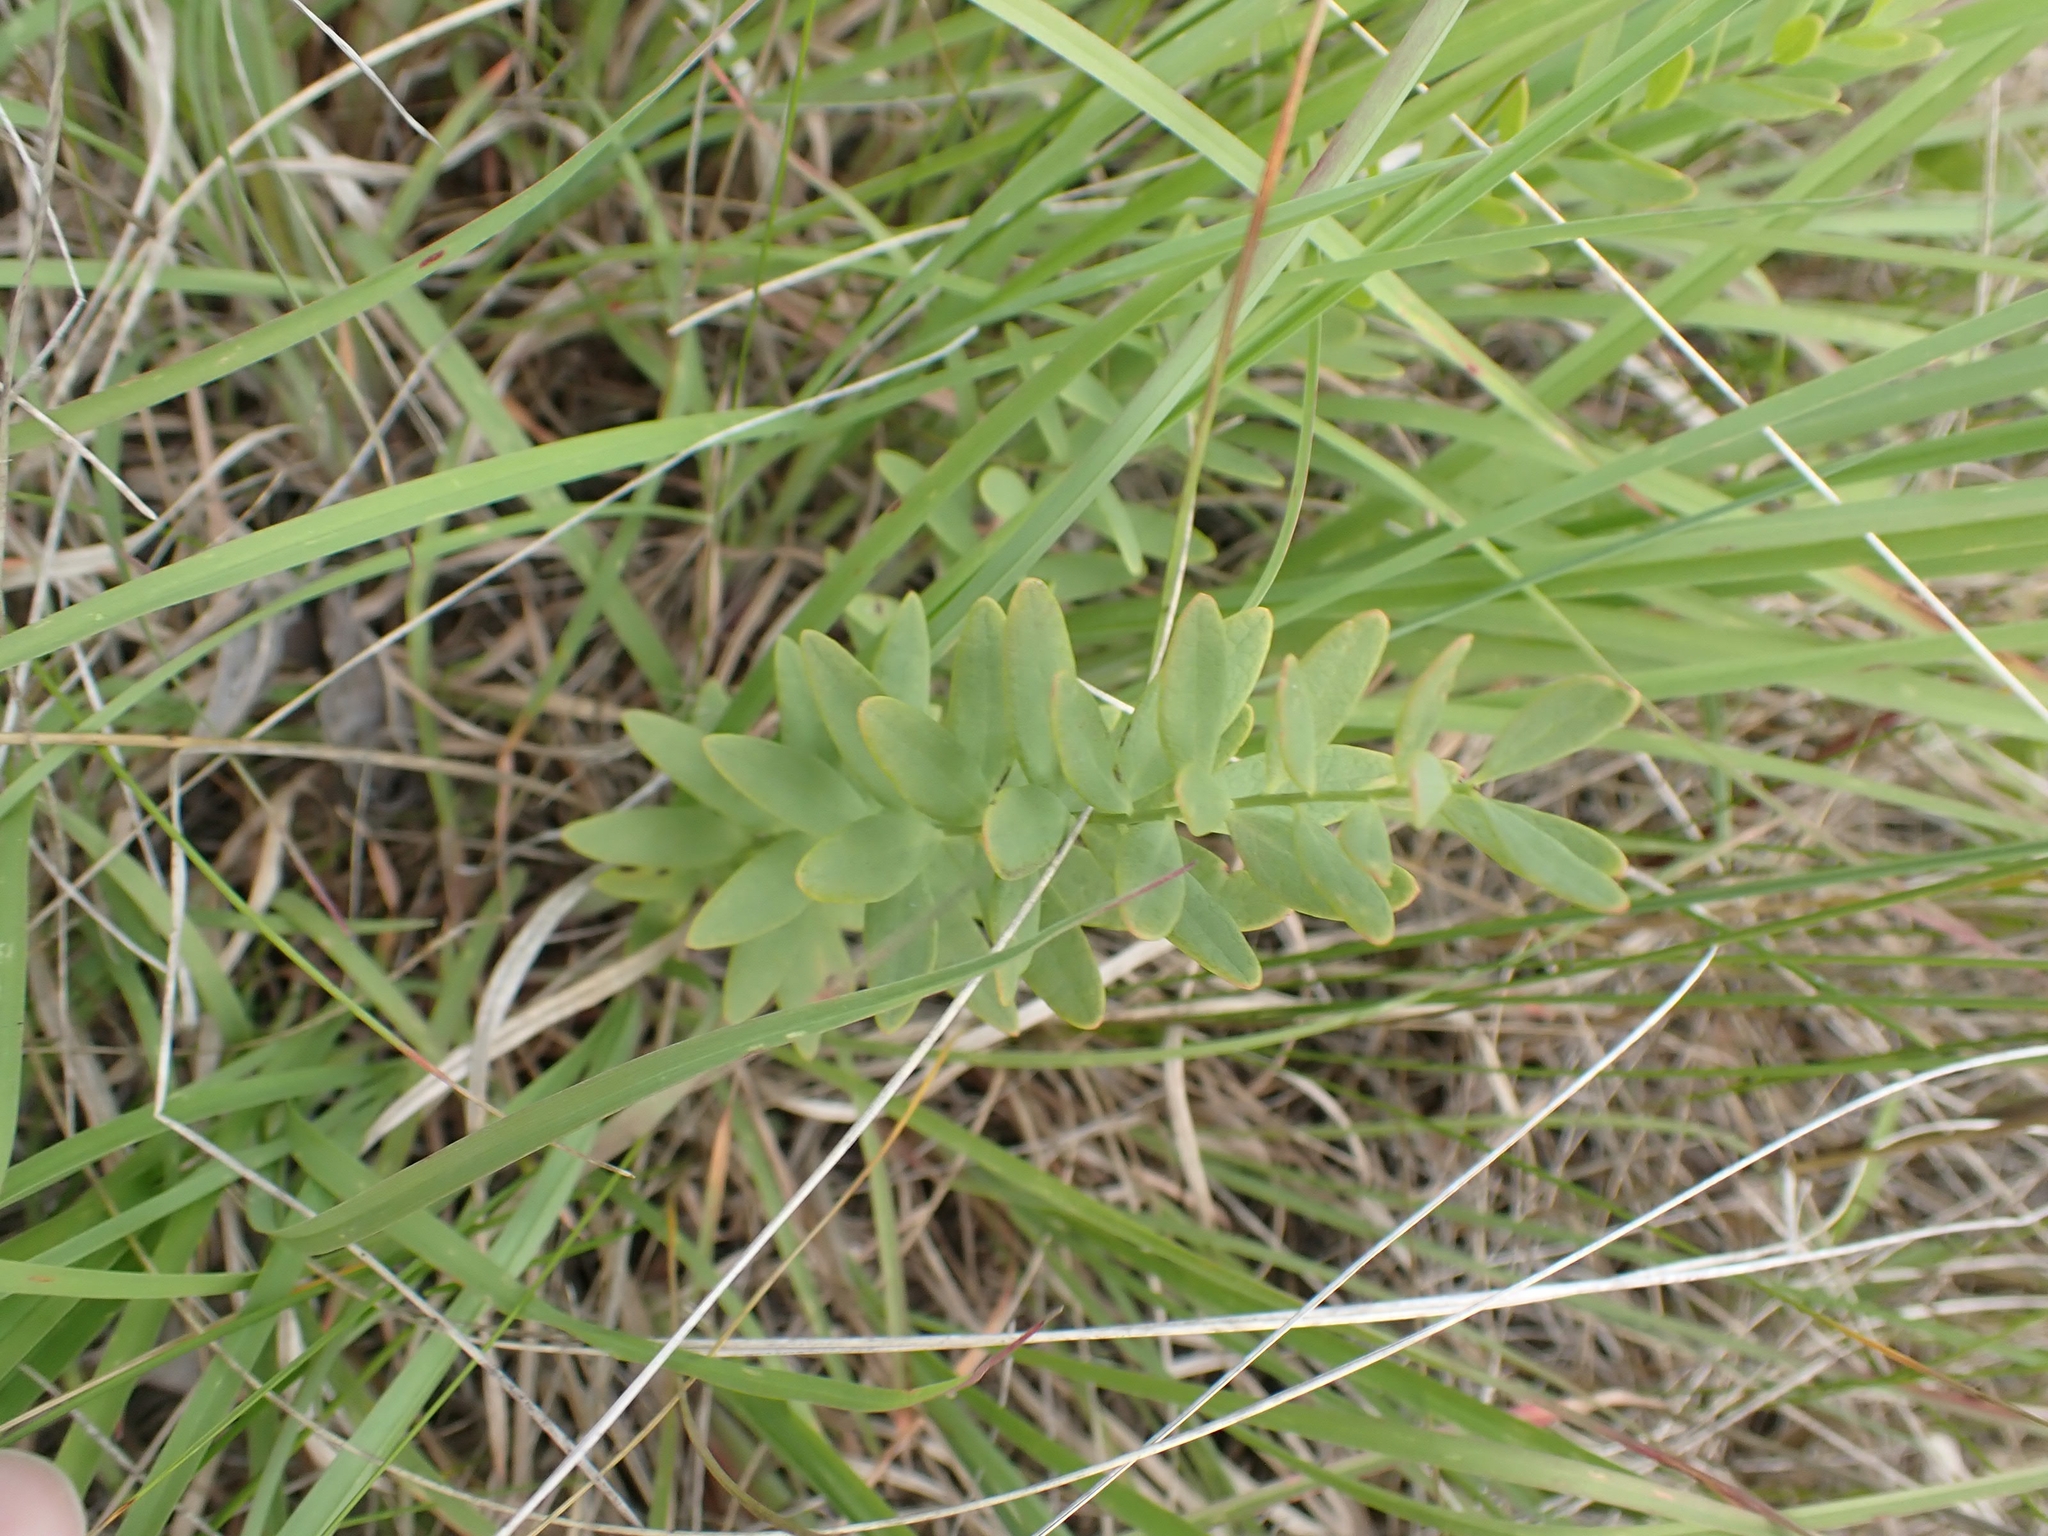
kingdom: Plantae
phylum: Tracheophyta
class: Magnoliopsida
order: Santalales
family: Comandraceae
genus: Comandra
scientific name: Comandra umbellata
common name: Bastard toadflax
